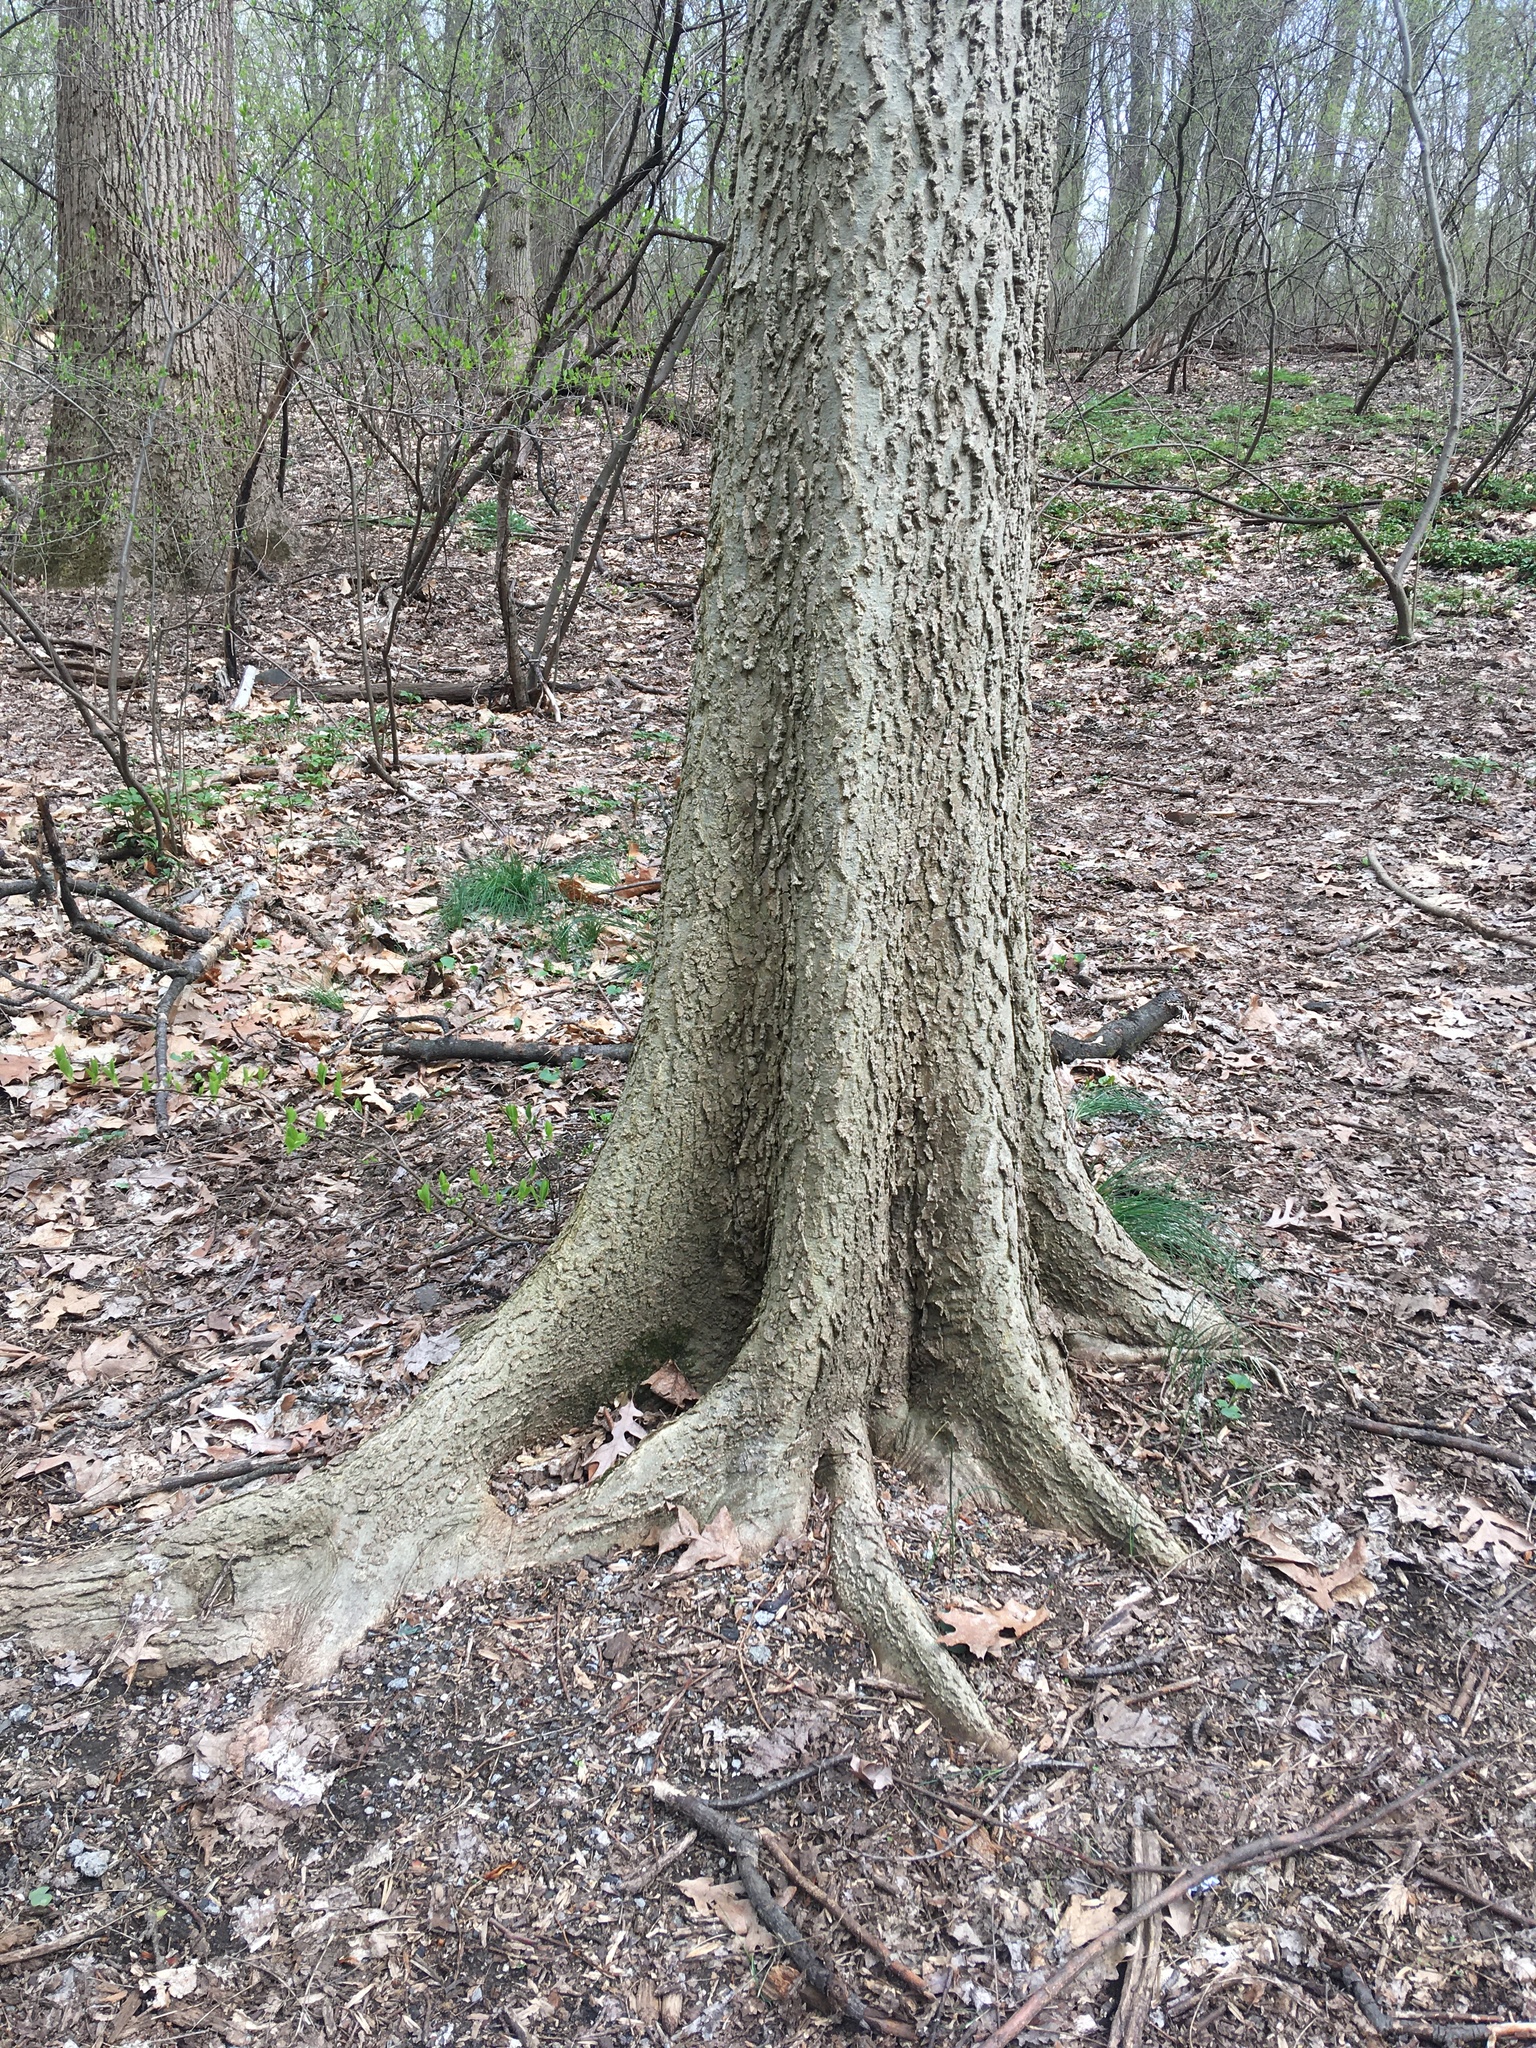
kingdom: Plantae
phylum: Tracheophyta
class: Magnoliopsida
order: Rosales
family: Cannabaceae
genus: Celtis
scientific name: Celtis occidentalis
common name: Common hackberry
